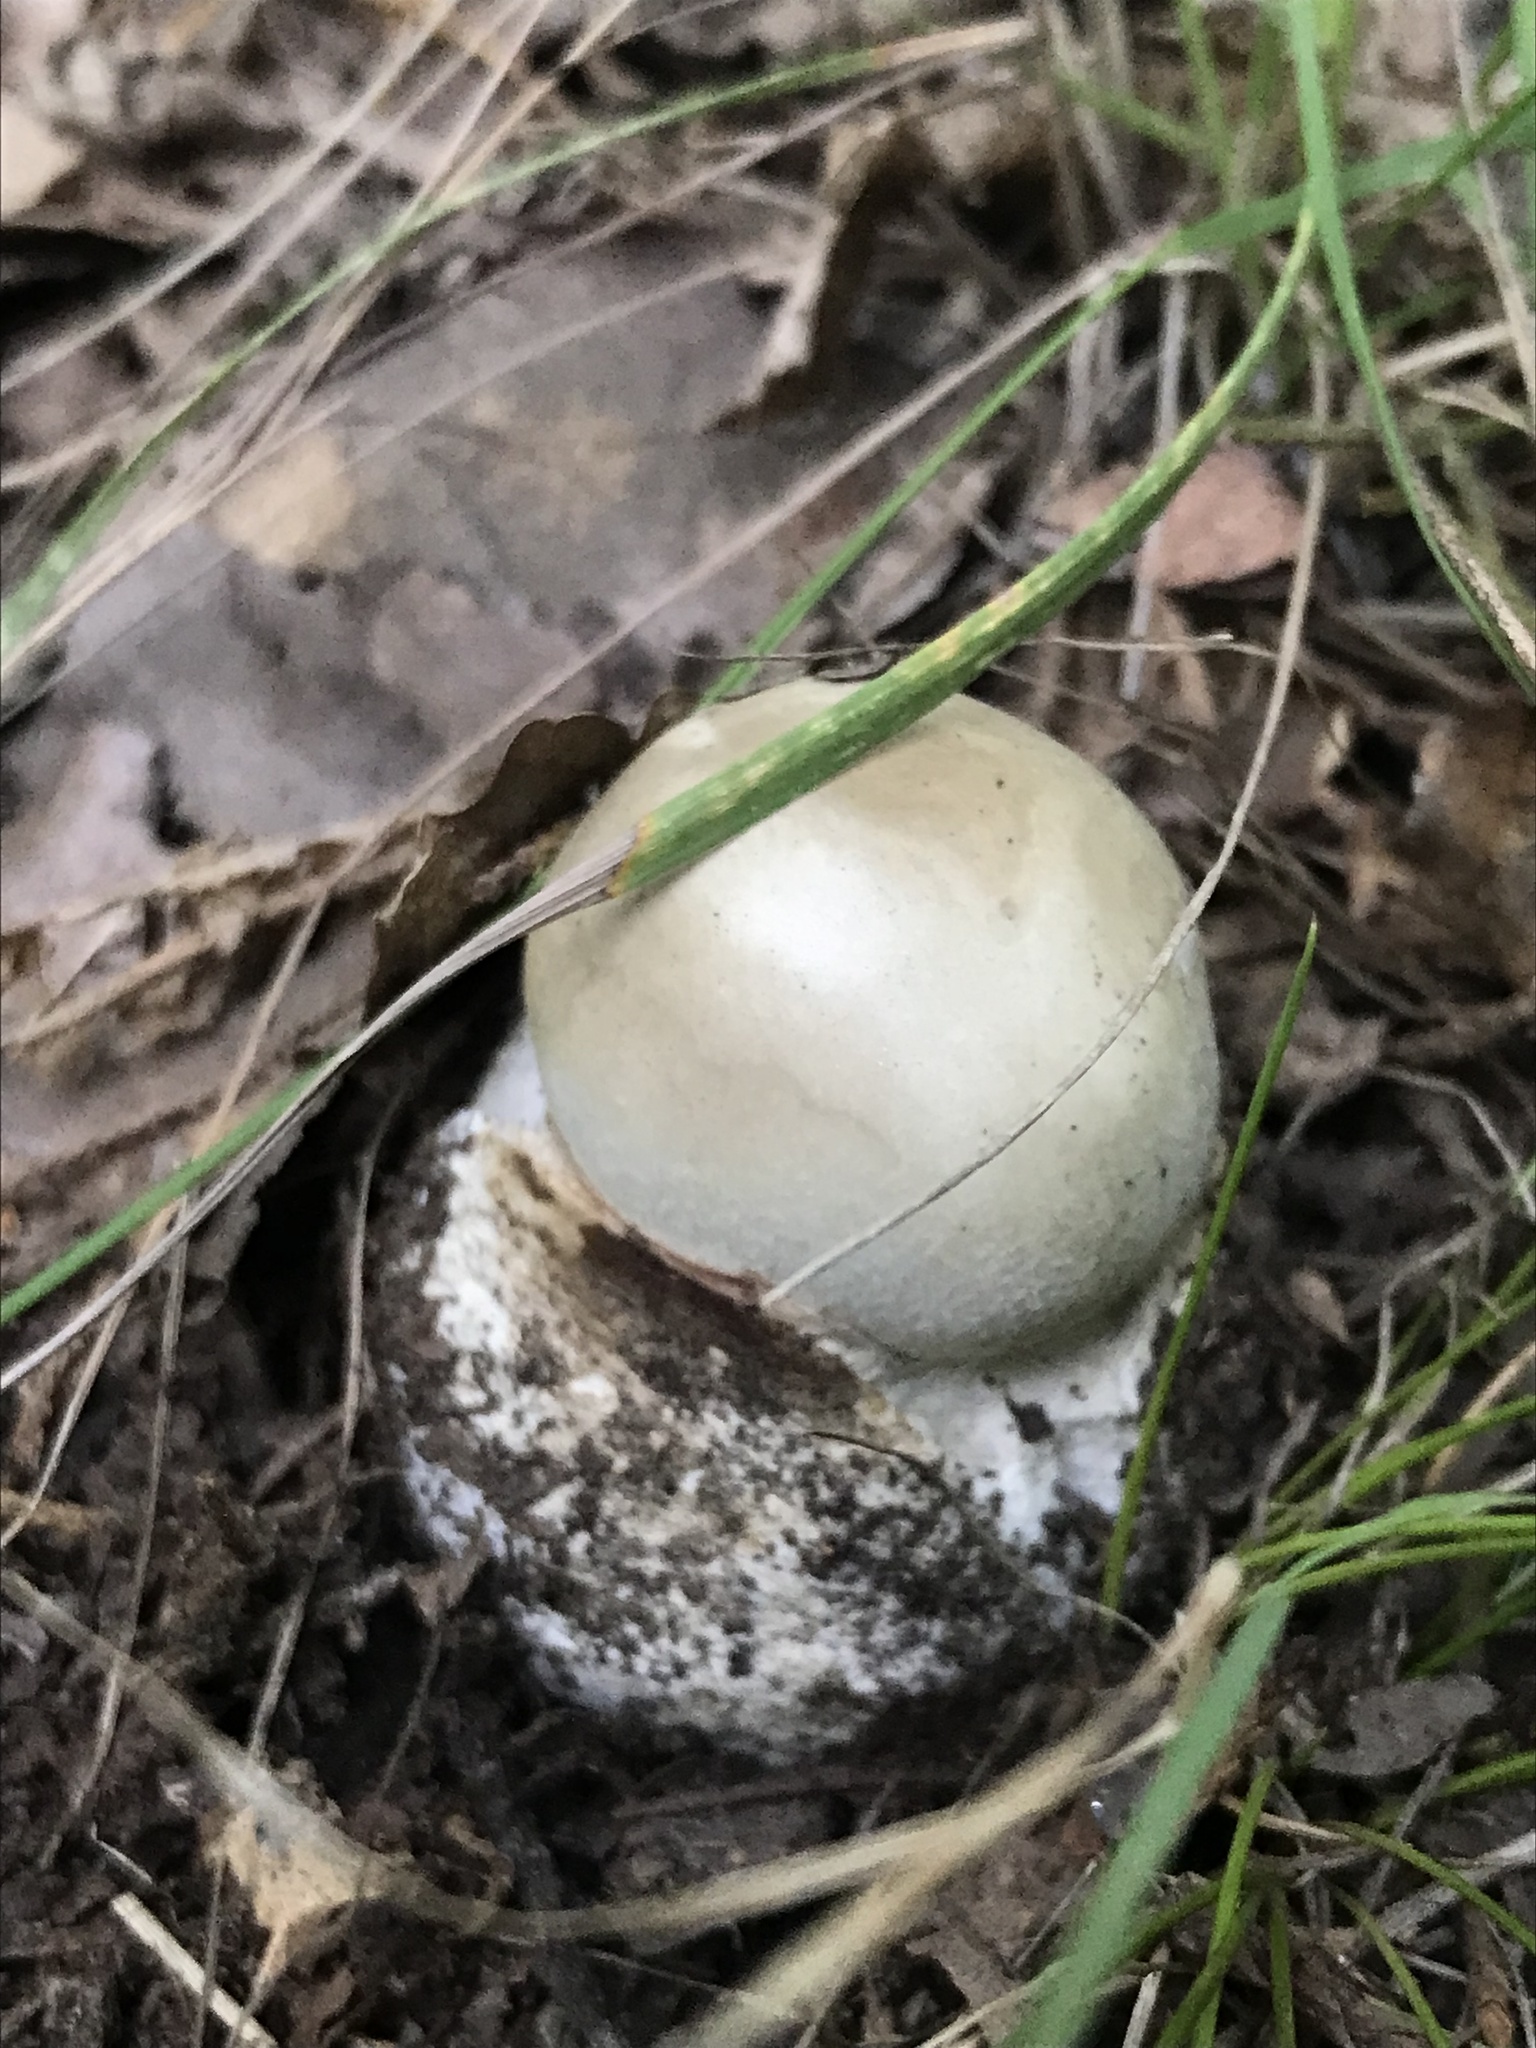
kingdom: Fungi
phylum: Basidiomycota
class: Agaricomycetes
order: Agaricales
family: Amanitaceae
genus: Amanita
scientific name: Amanita phalloides
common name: Death cap
